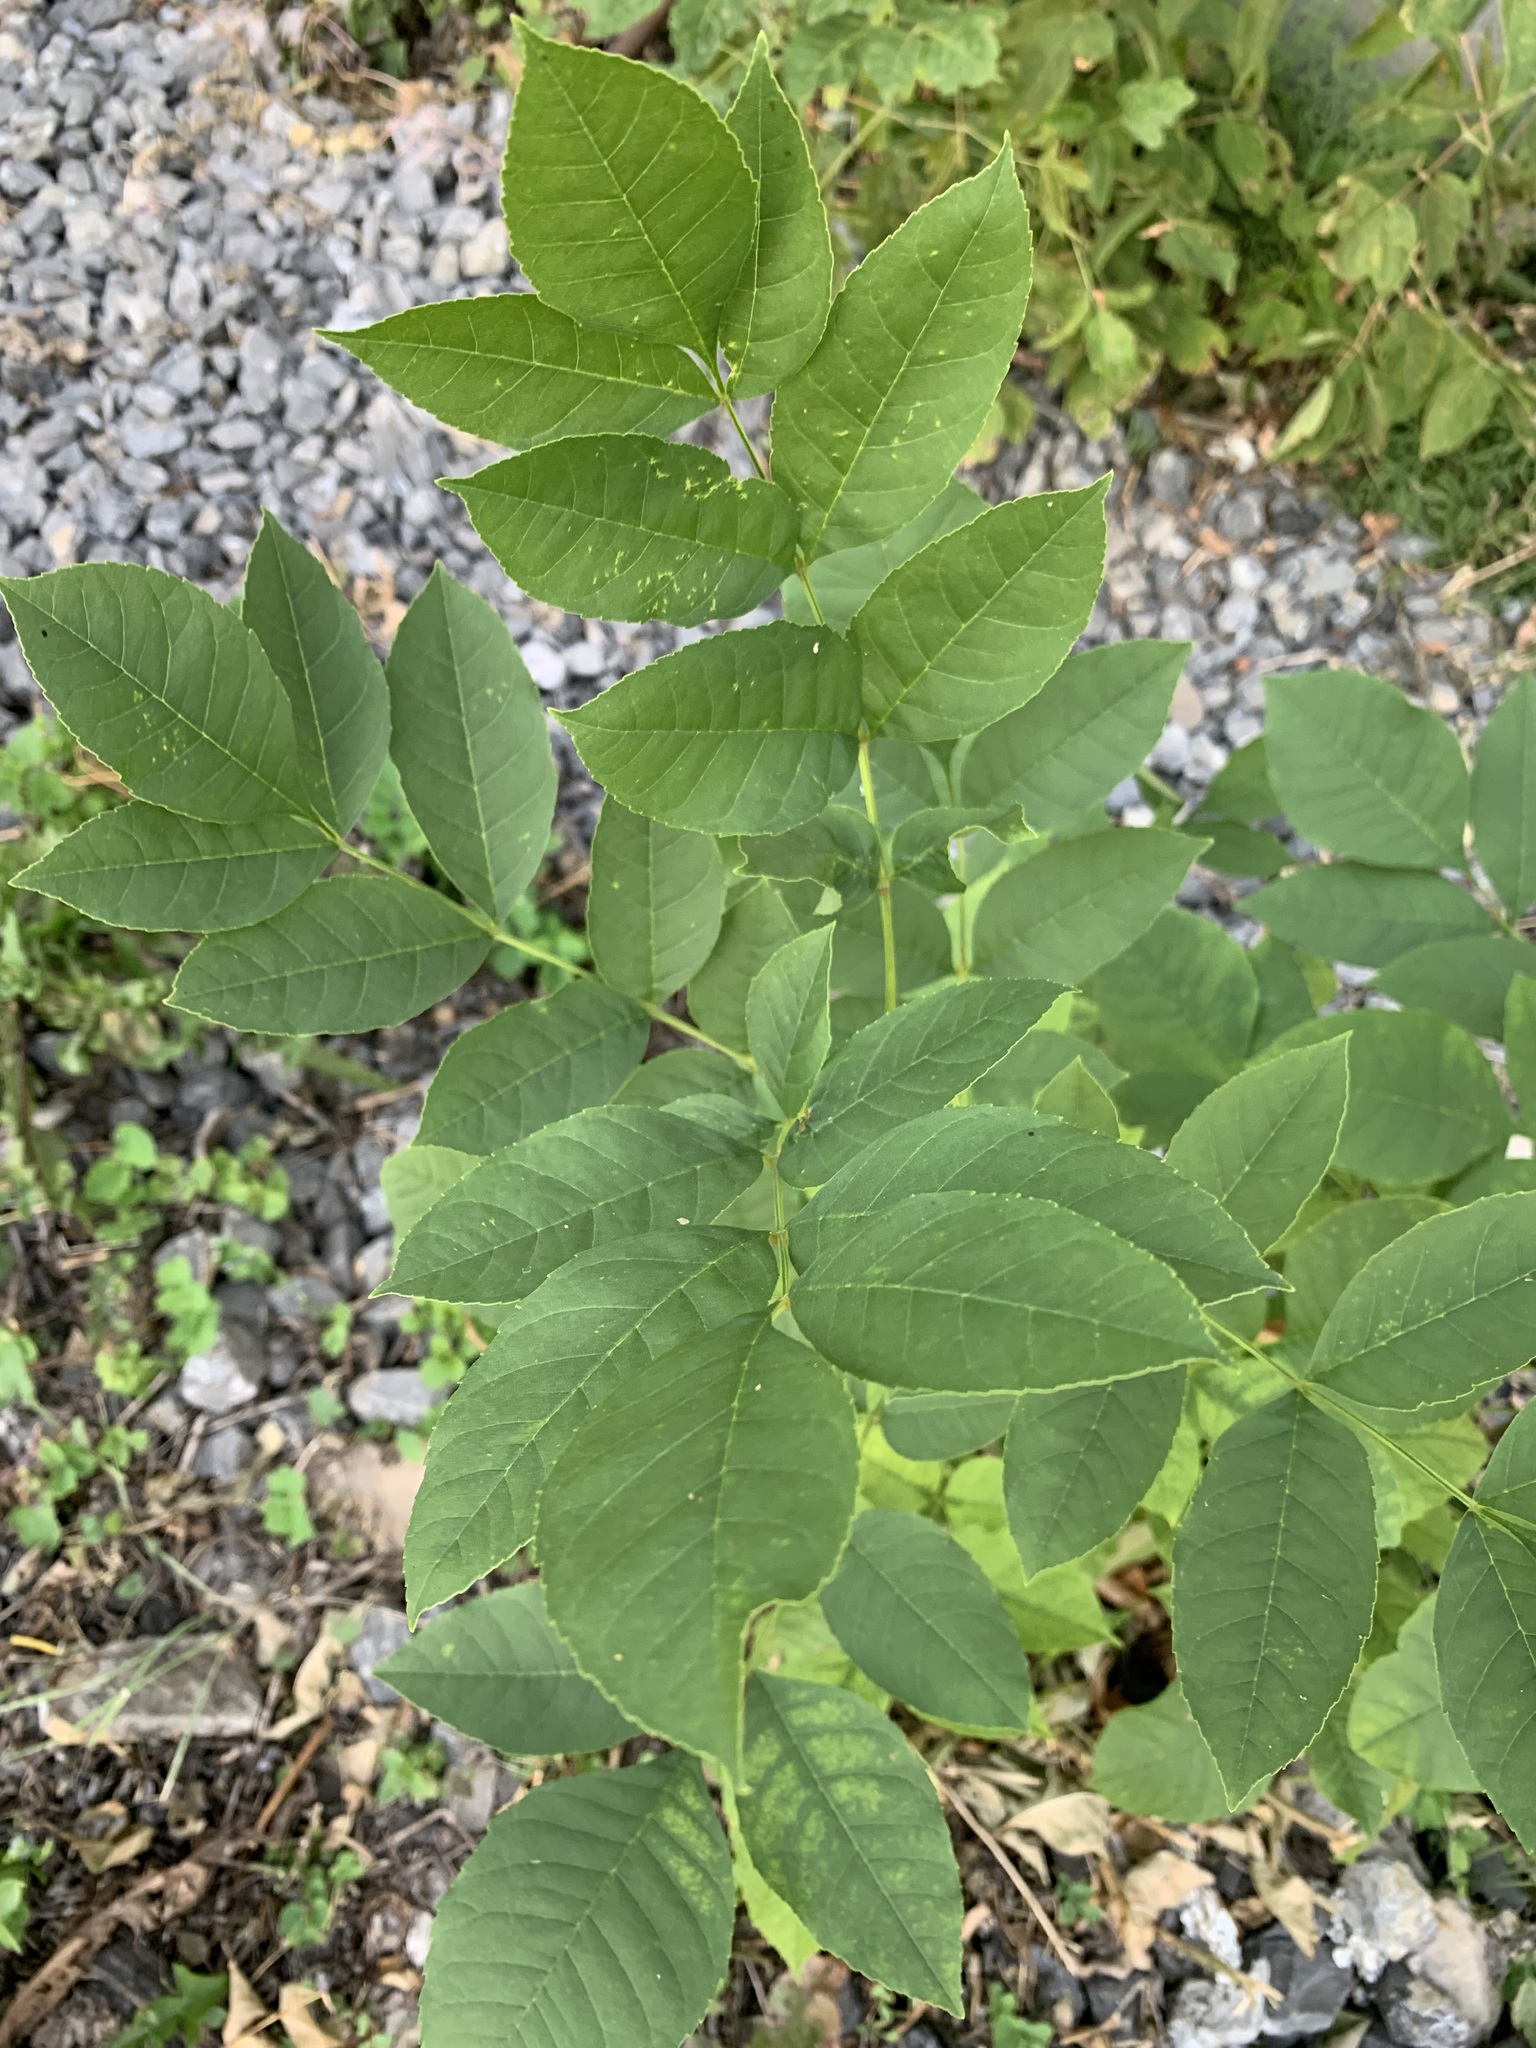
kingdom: Plantae
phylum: Tracheophyta
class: Magnoliopsida
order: Lamiales
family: Oleaceae
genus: Fraxinus
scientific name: Fraxinus pennsylvanica
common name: Green ash
